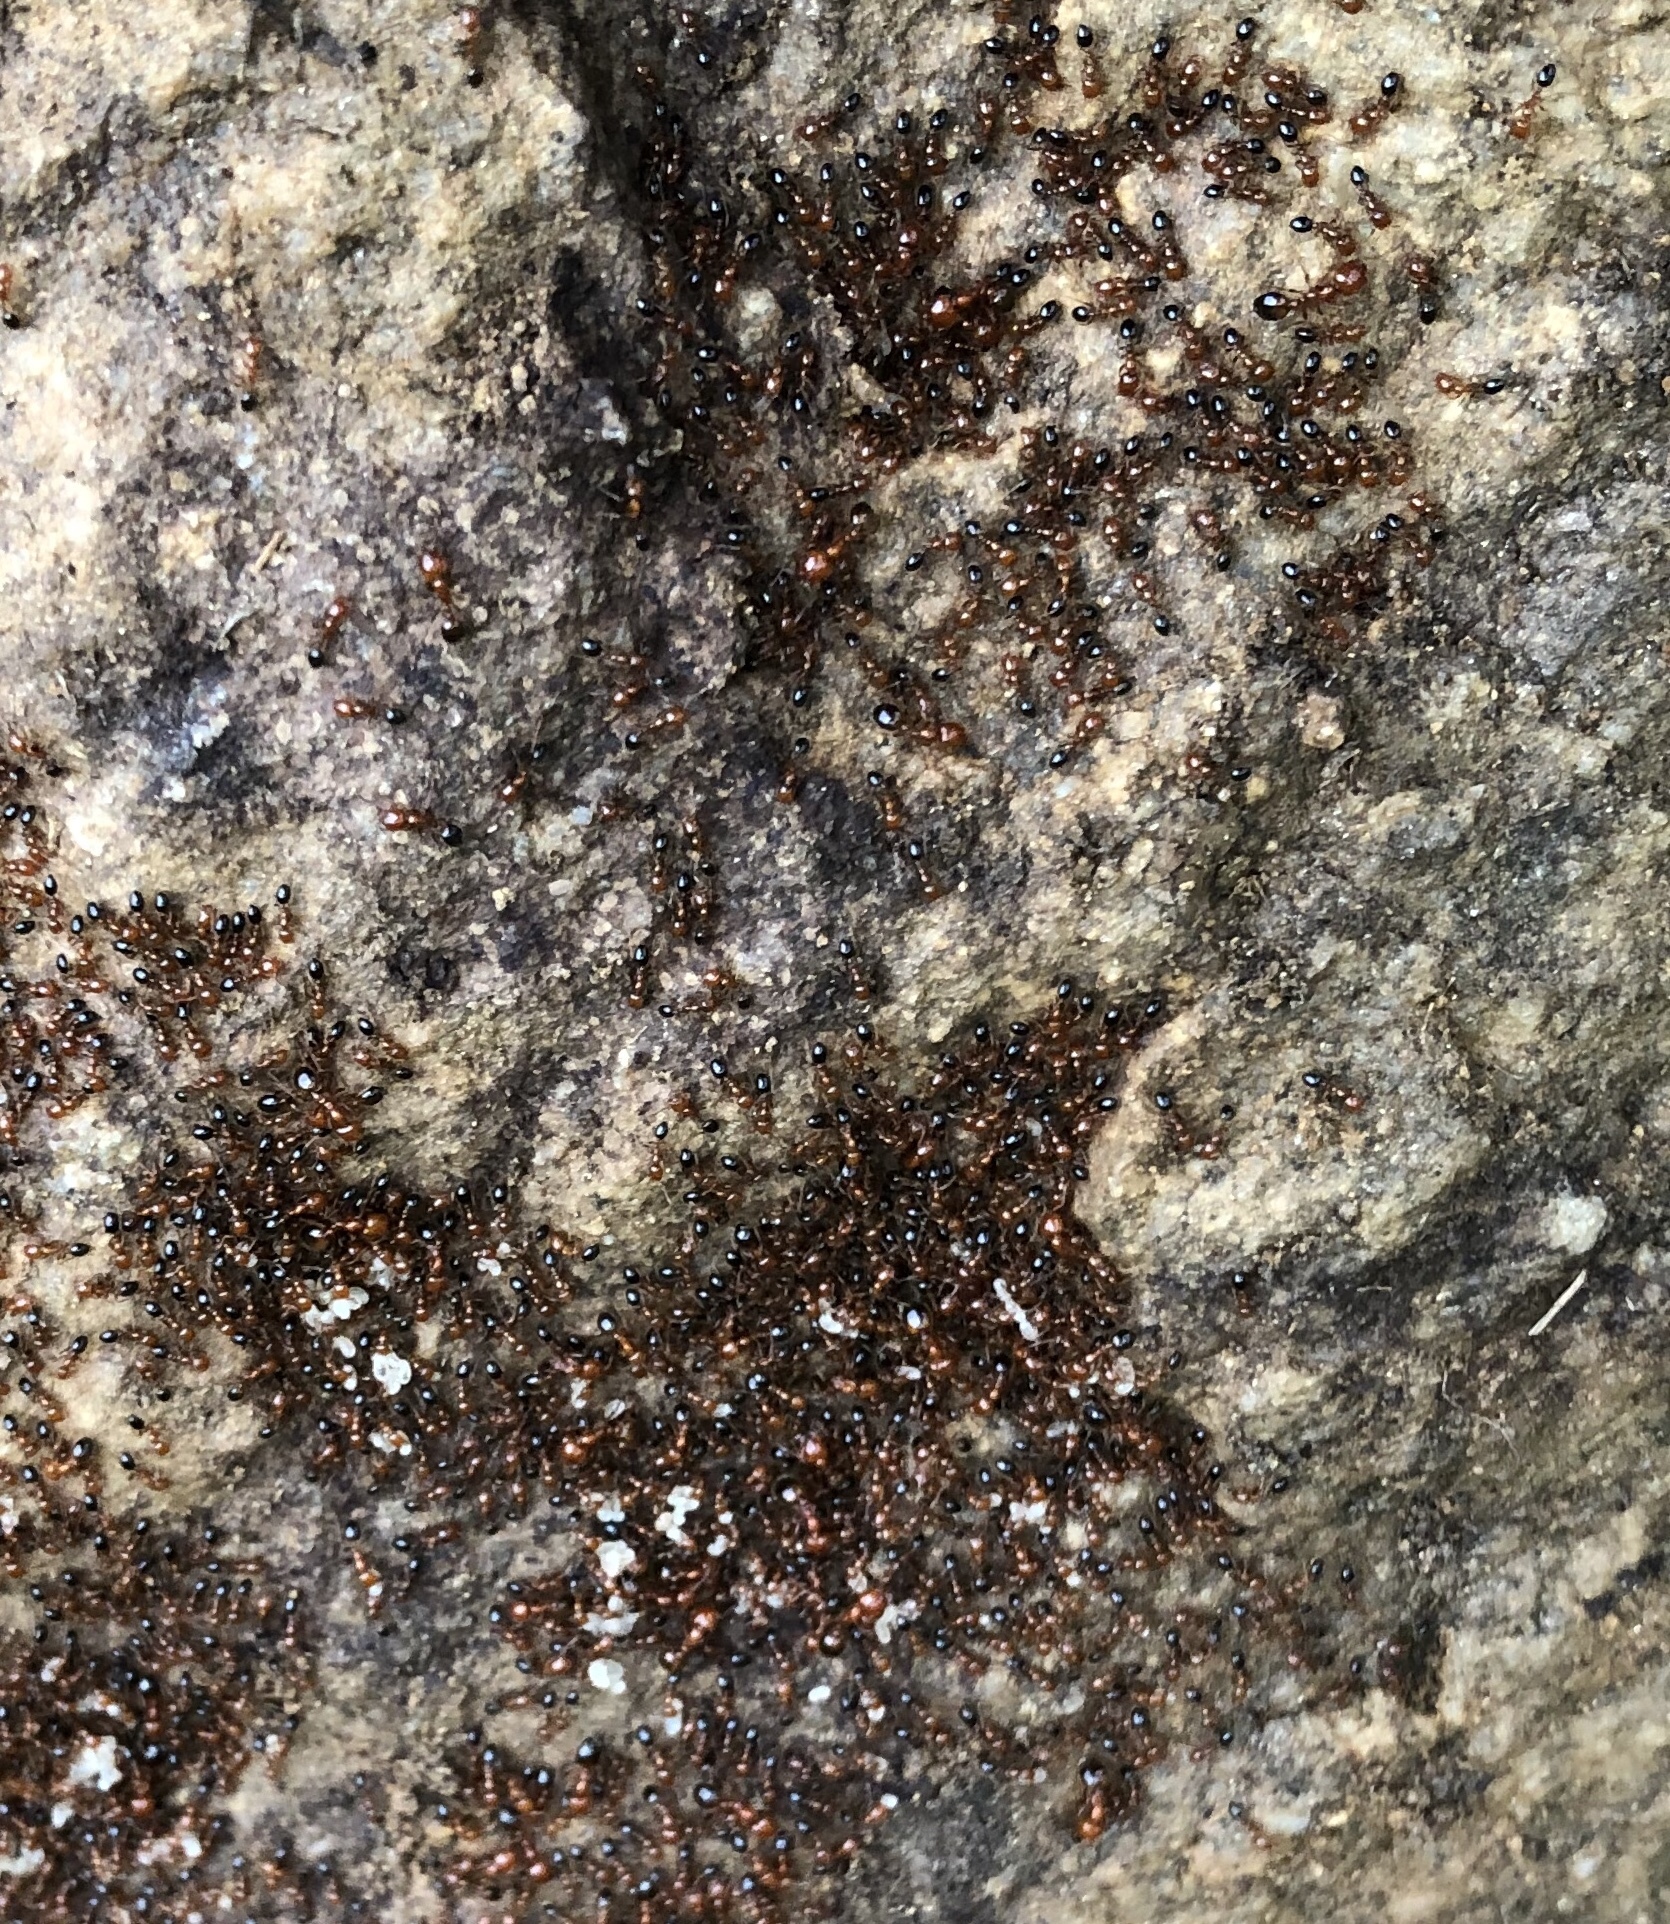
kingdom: Animalia
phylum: Arthropoda
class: Insecta
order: Hymenoptera
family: Formicidae
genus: Solenopsis
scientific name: Solenopsis xyloni
